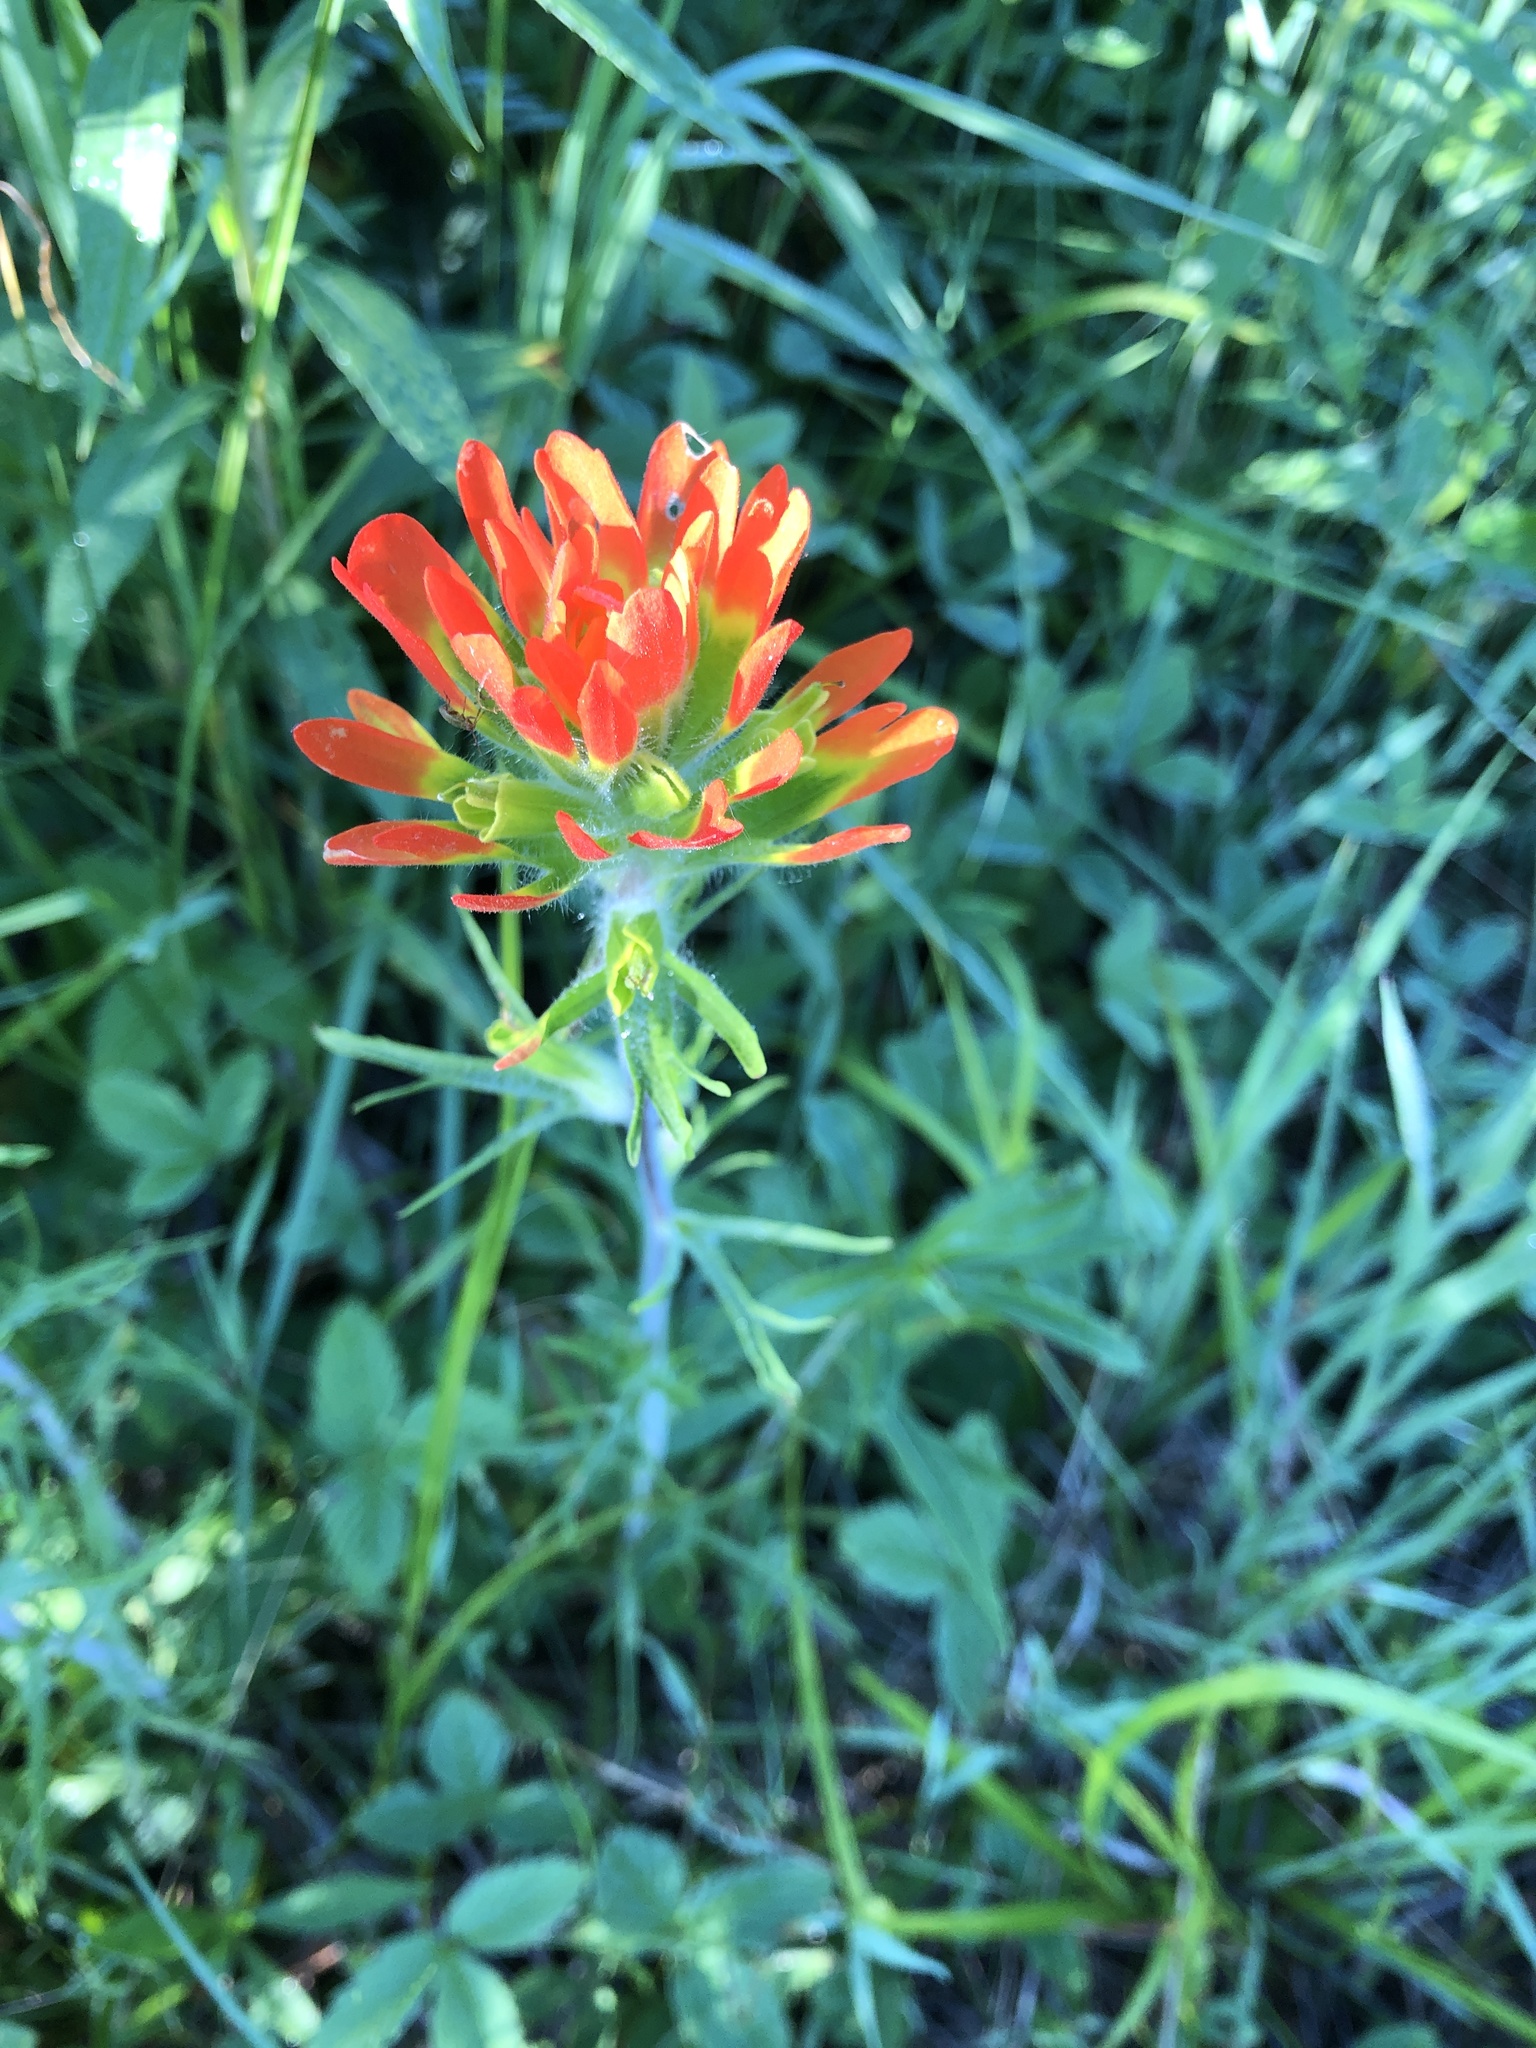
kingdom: Plantae
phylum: Tracheophyta
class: Magnoliopsida
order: Lamiales
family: Orobanchaceae
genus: Castilleja
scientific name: Castilleja coccinea
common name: Scarlet paintbrush
